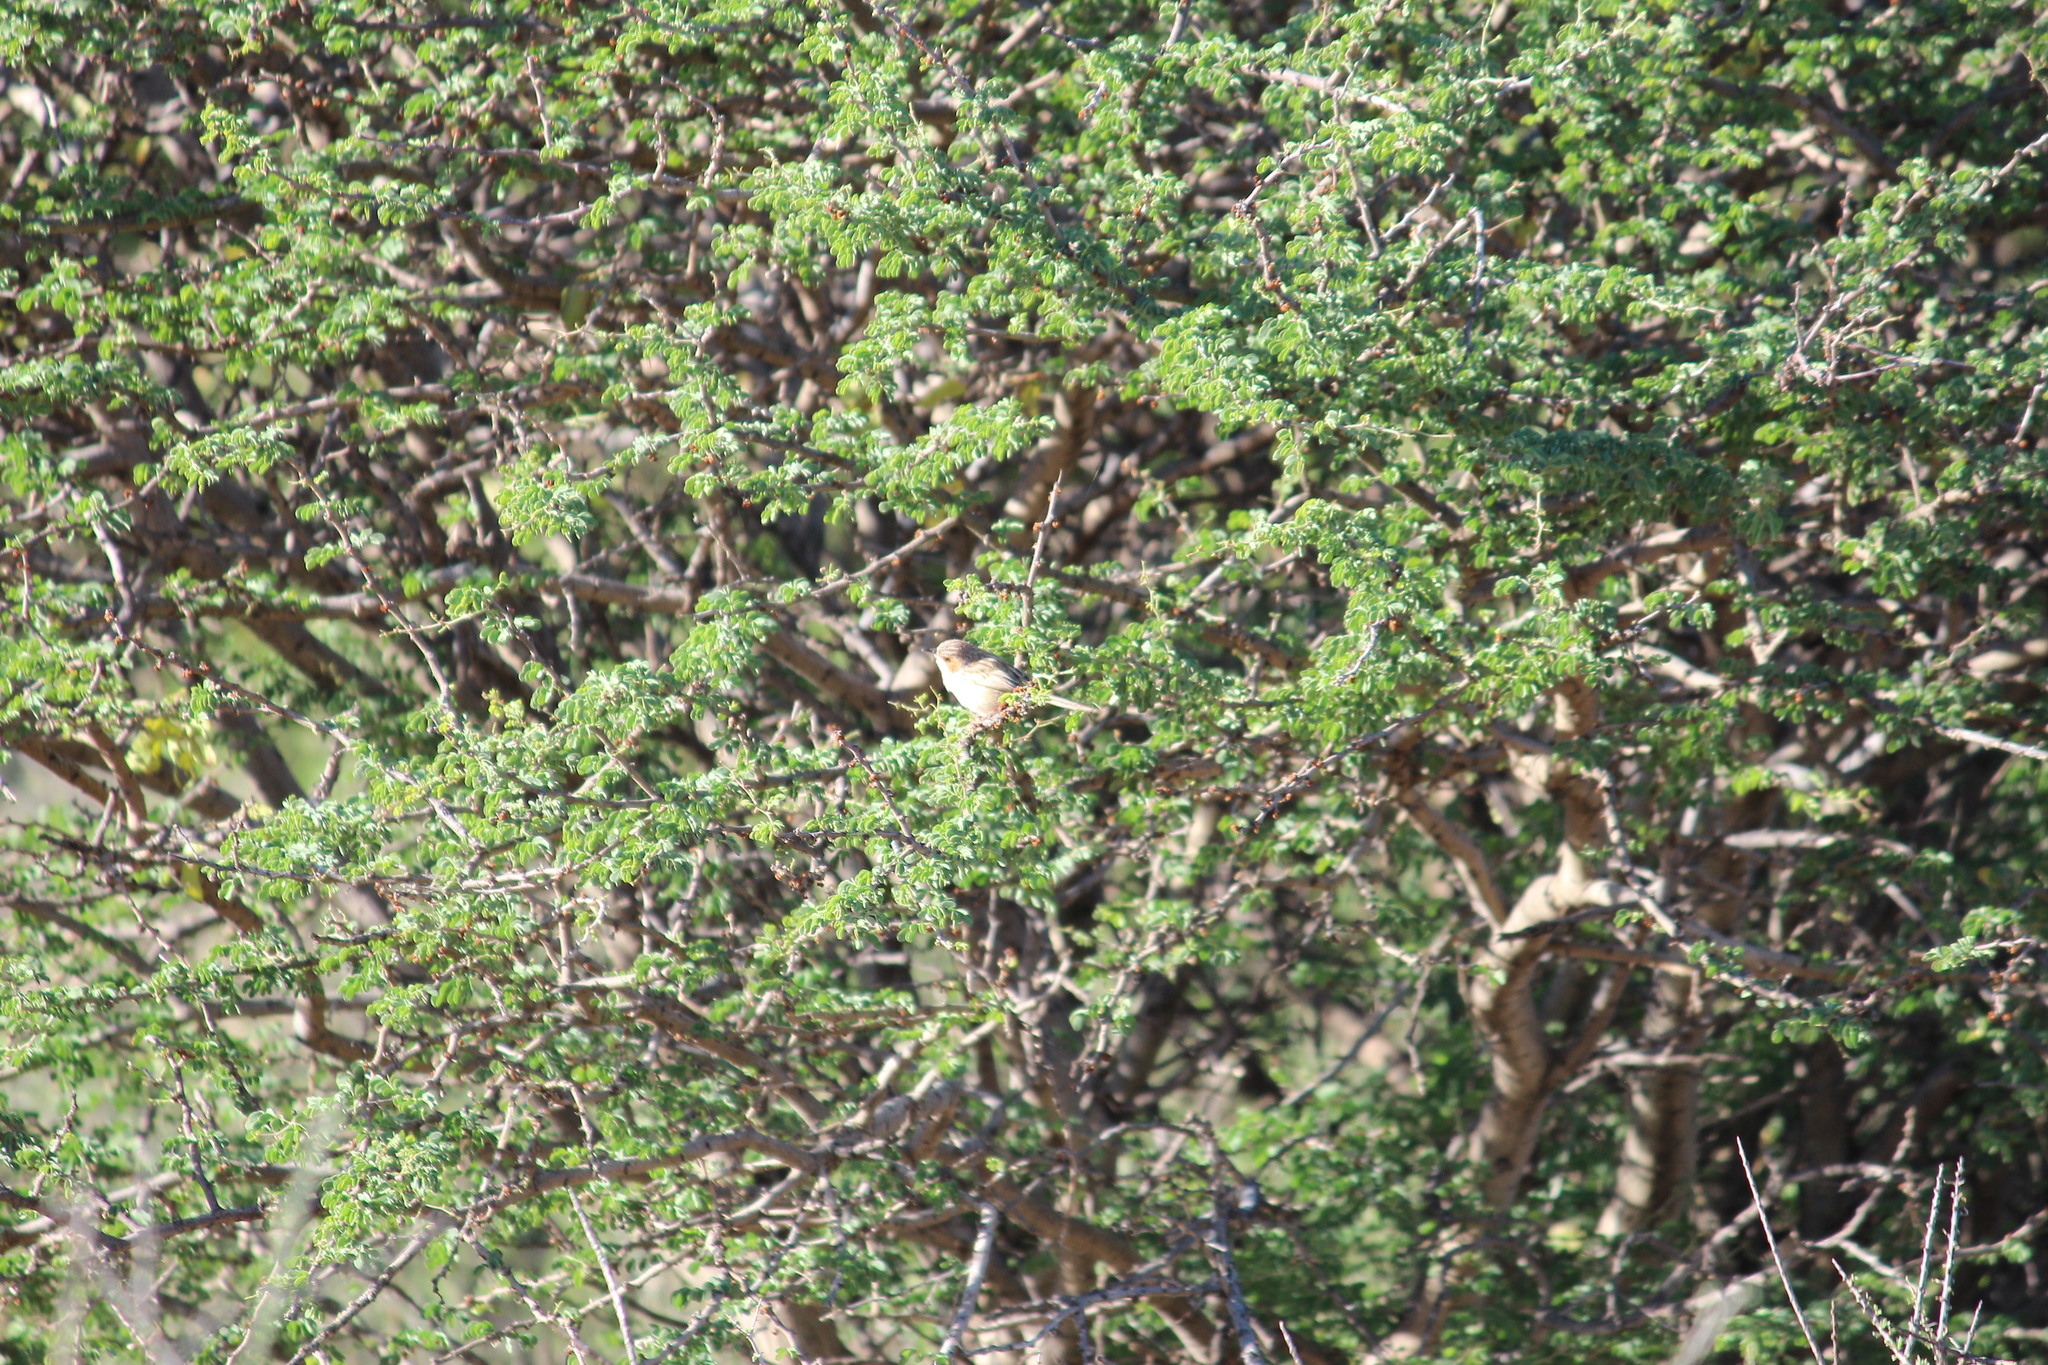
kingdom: Animalia
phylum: Chordata
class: Aves
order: Passeriformes
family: Cisticolidae
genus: Malcorus
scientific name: Malcorus pectoralis
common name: Rufous-eared warbler
